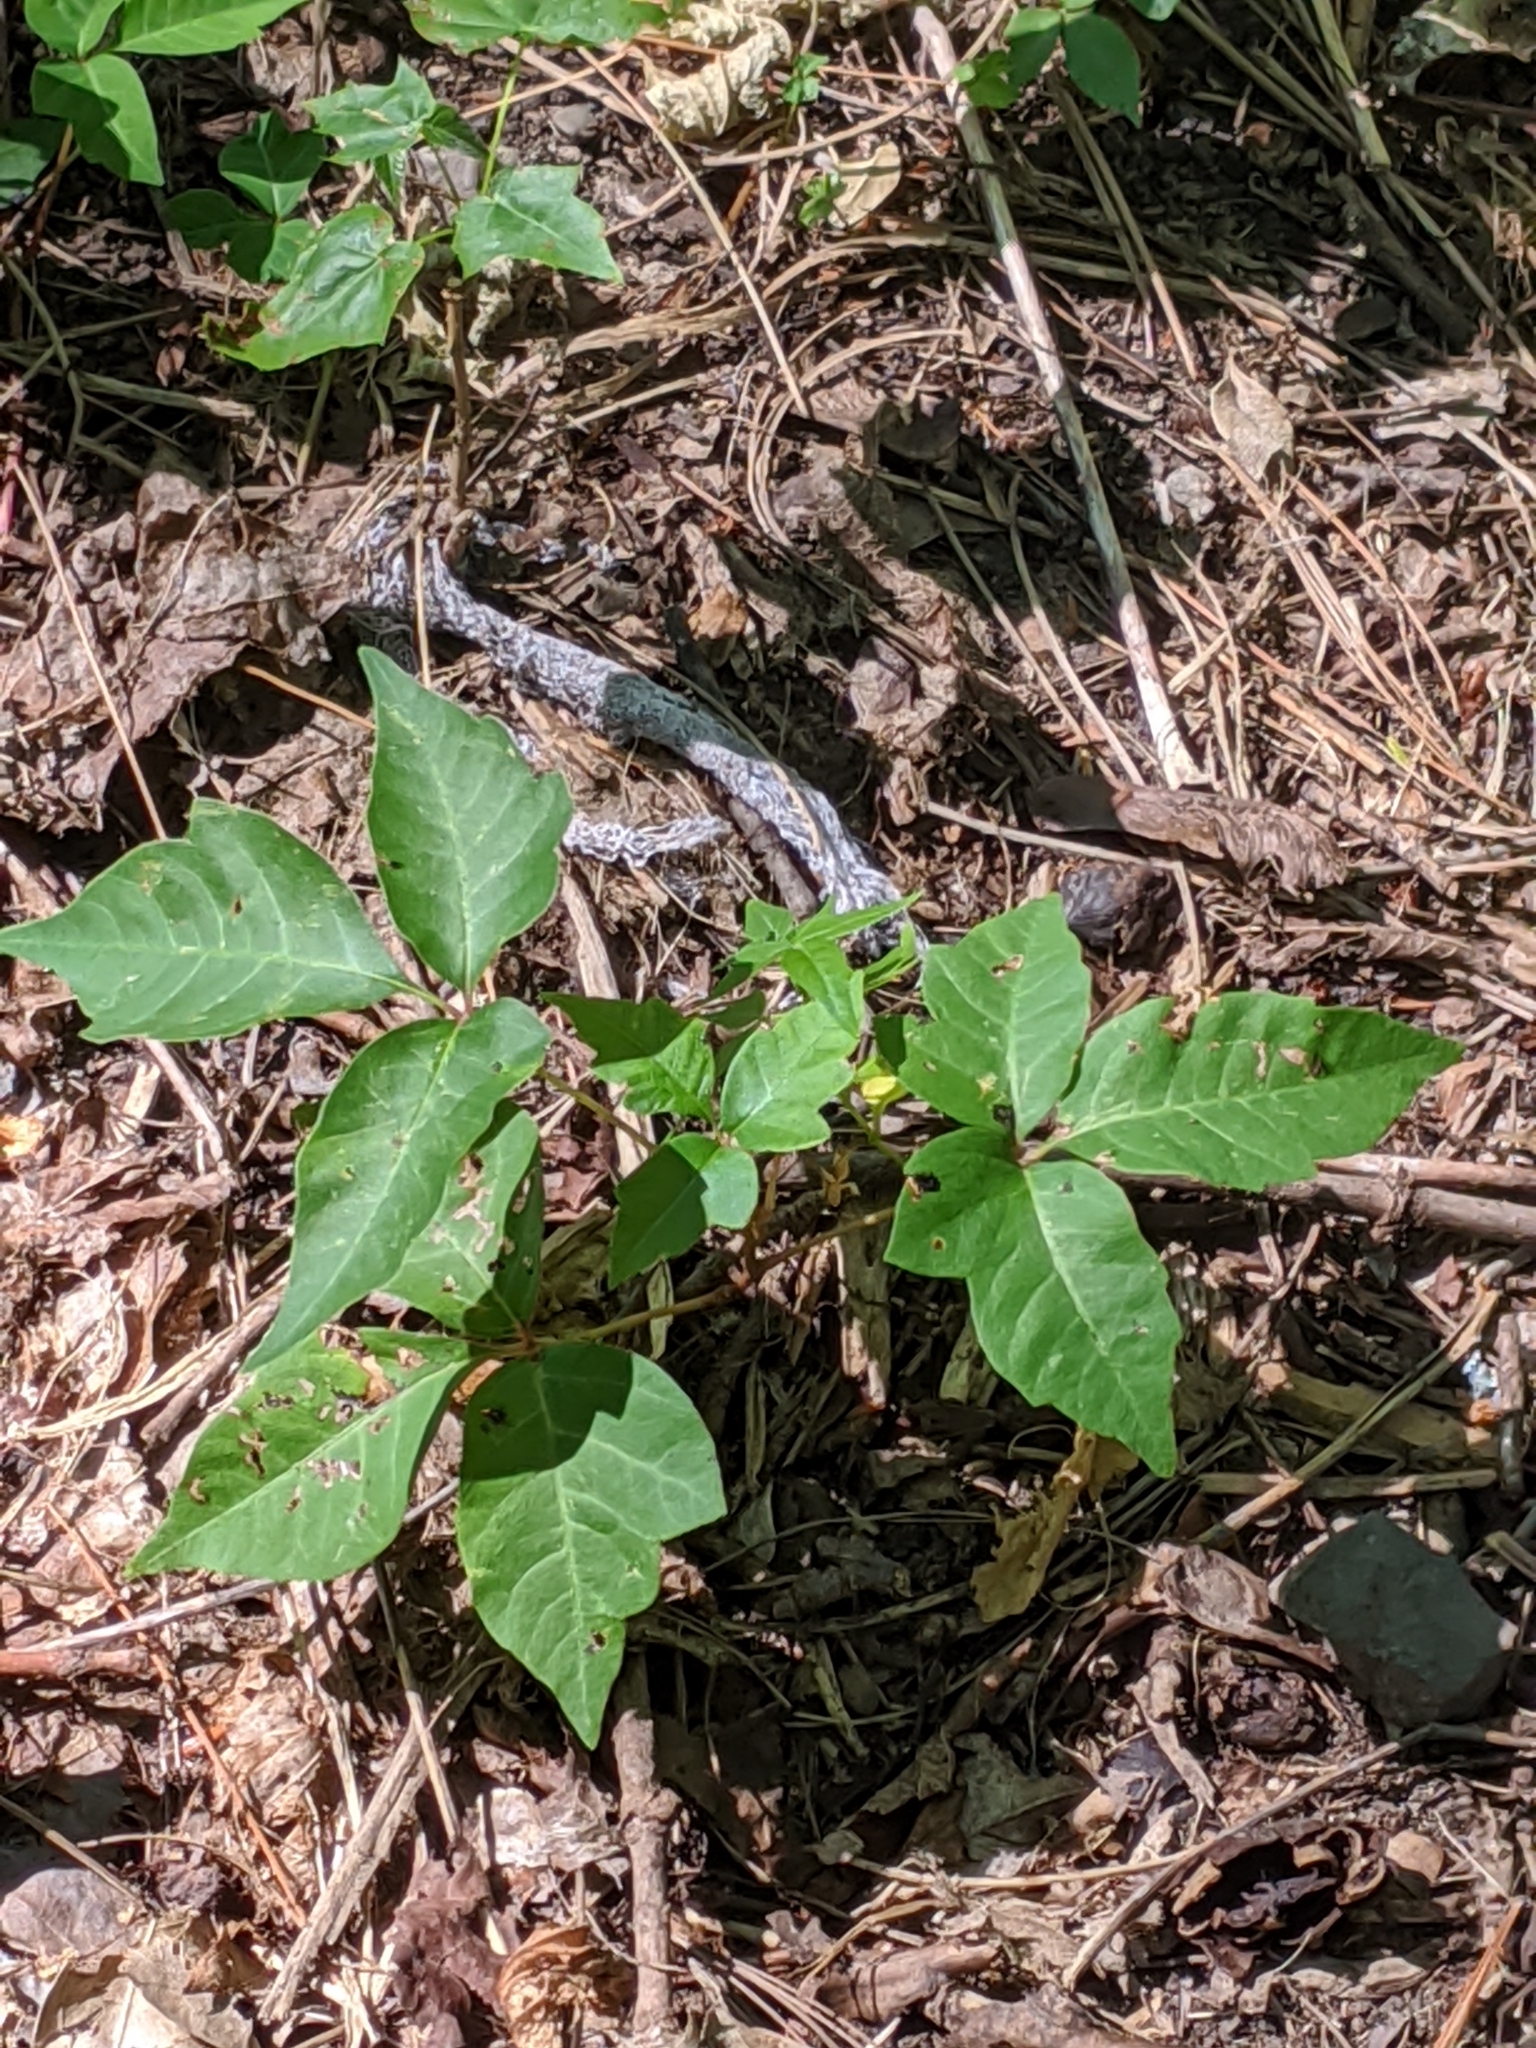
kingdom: Plantae
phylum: Tracheophyta
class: Magnoliopsida
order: Sapindales
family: Anacardiaceae
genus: Toxicodendron
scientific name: Toxicodendron radicans
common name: Poison ivy
